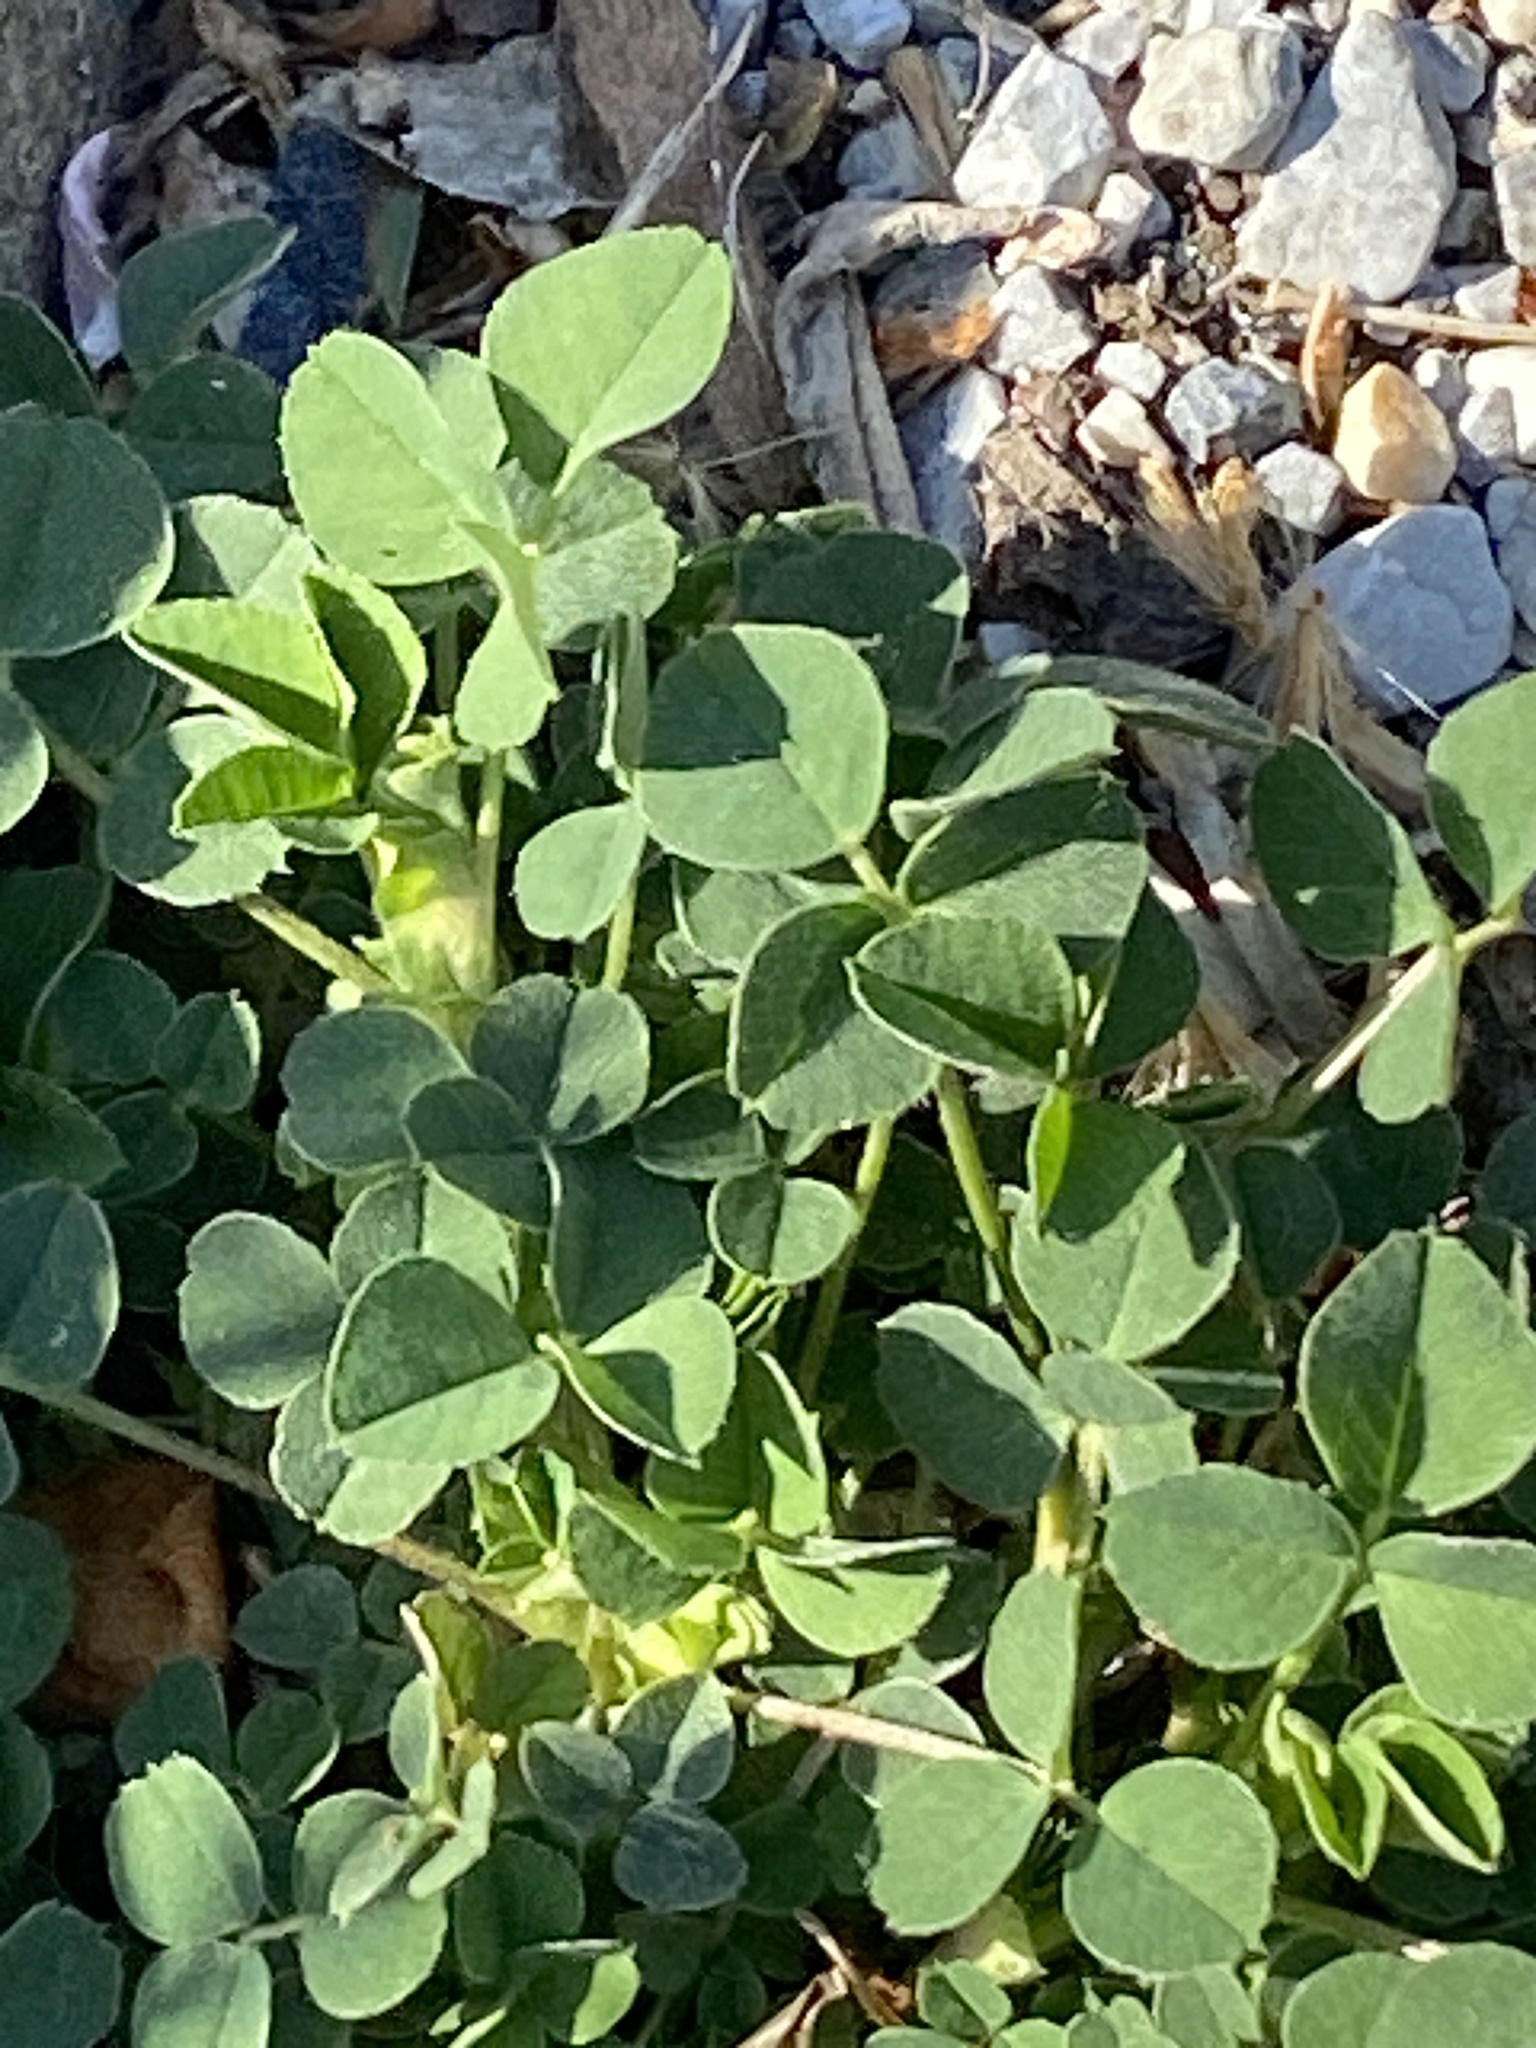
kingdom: Plantae
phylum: Tracheophyta
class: Magnoliopsida
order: Fabales
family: Fabaceae
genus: Medicago
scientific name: Medicago lupulina
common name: Black medick
